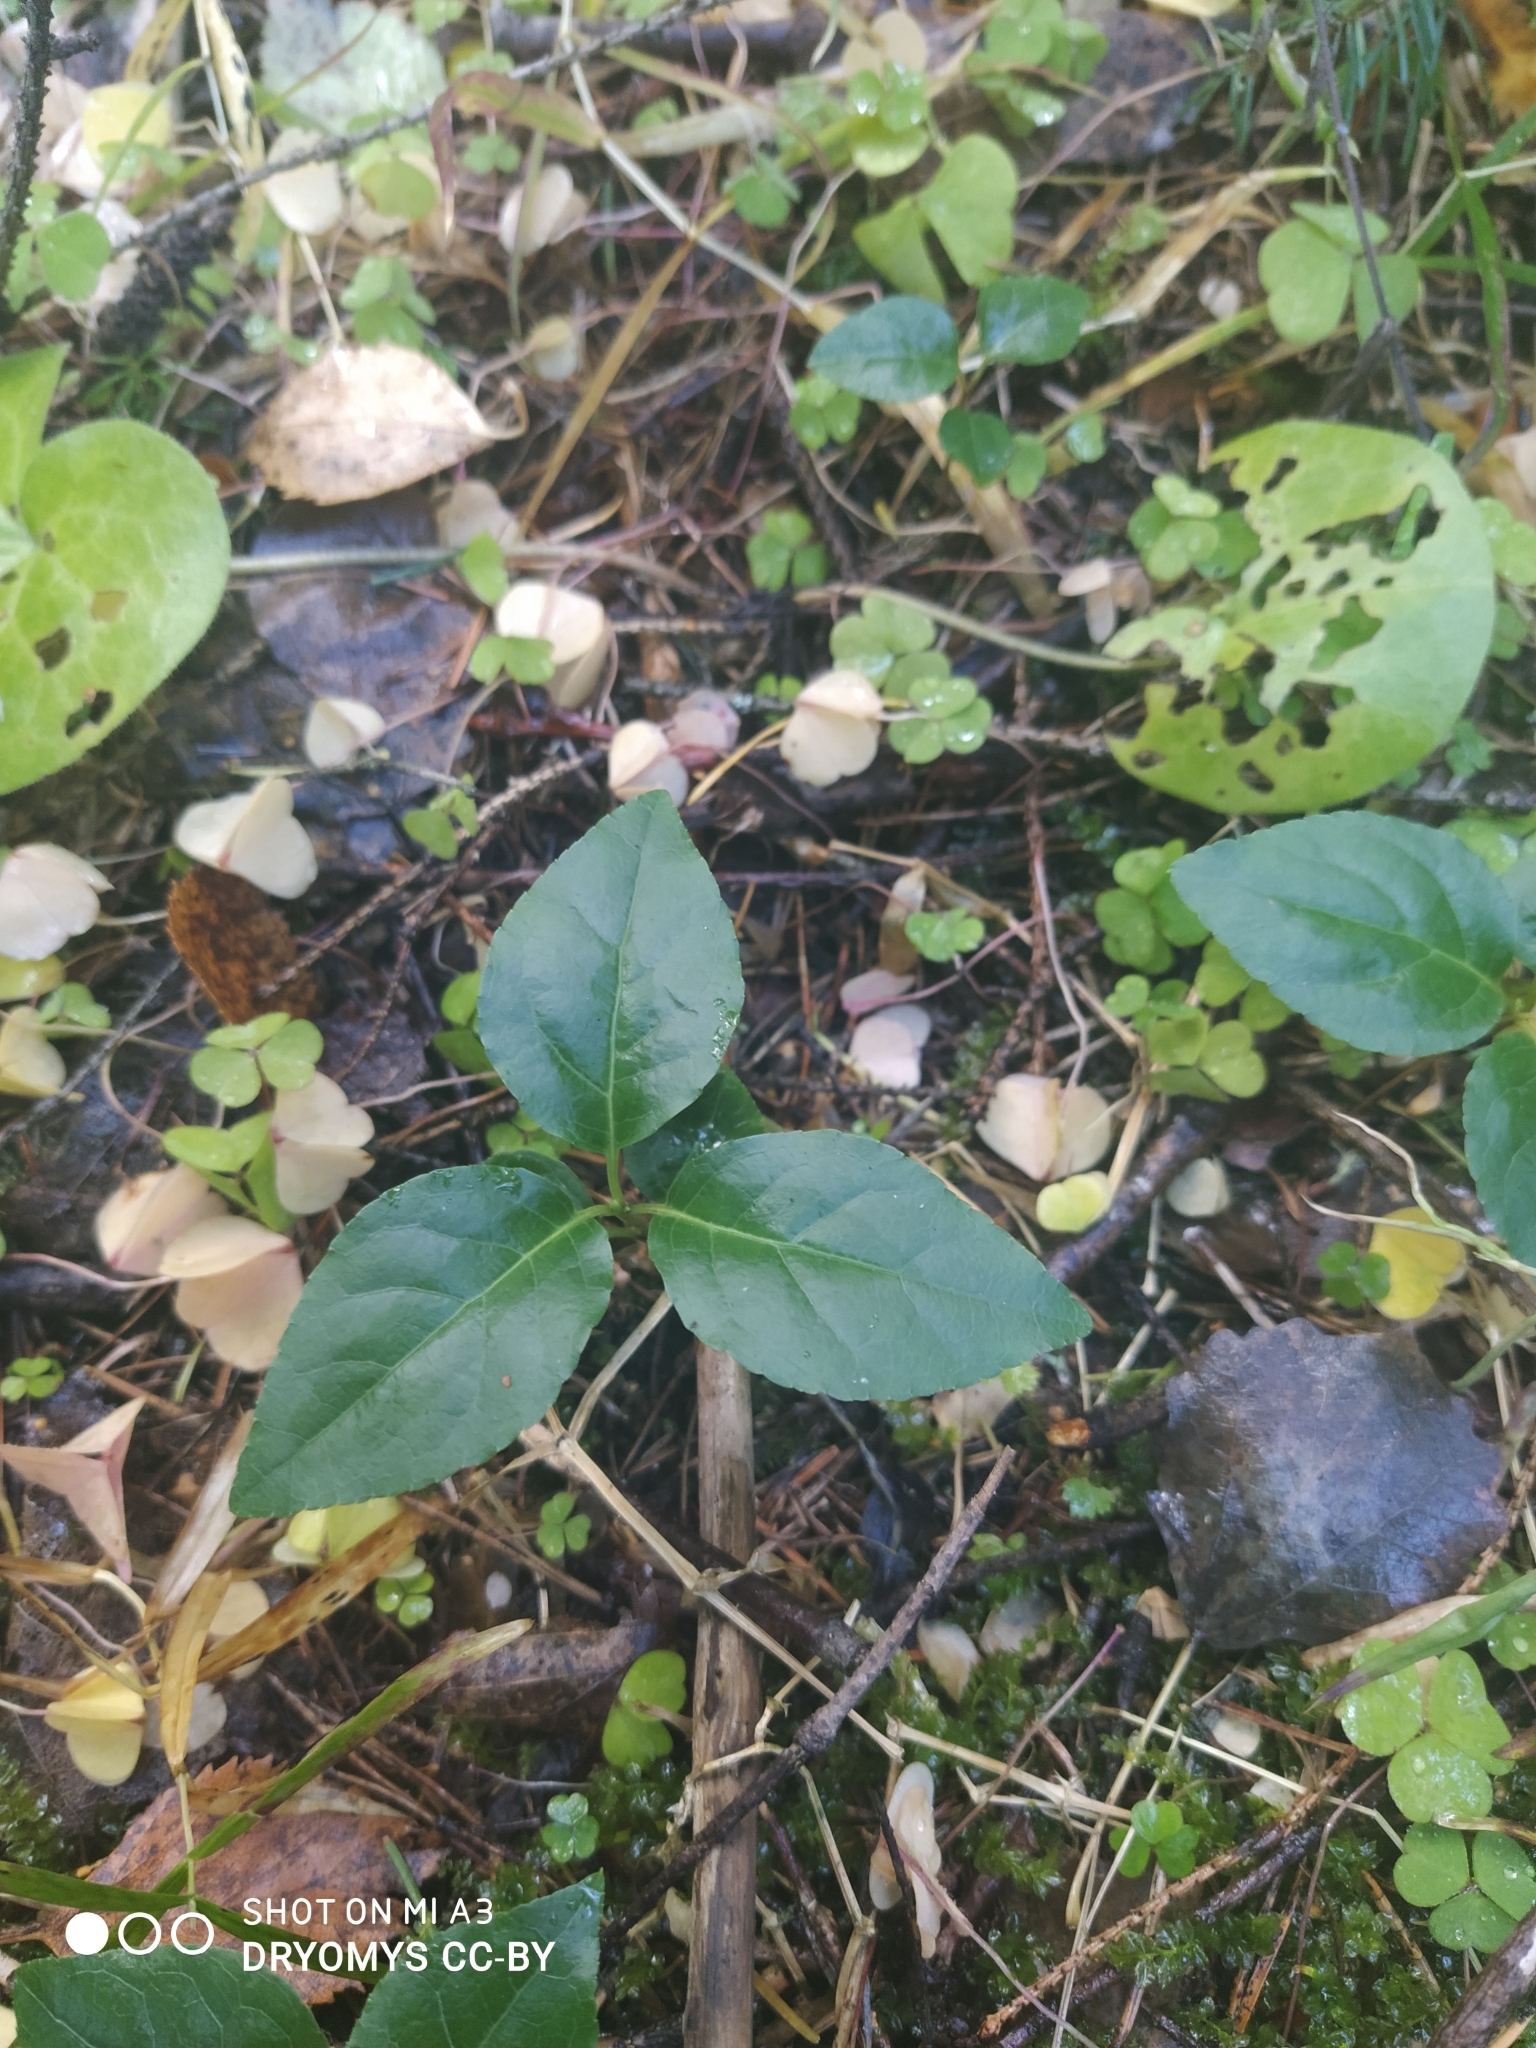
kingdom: Plantae
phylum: Tracheophyta
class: Magnoliopsida
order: Ericales
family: Ericaceae
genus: Orthilia
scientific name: Orthilia secunda
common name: One-sided orthilia
